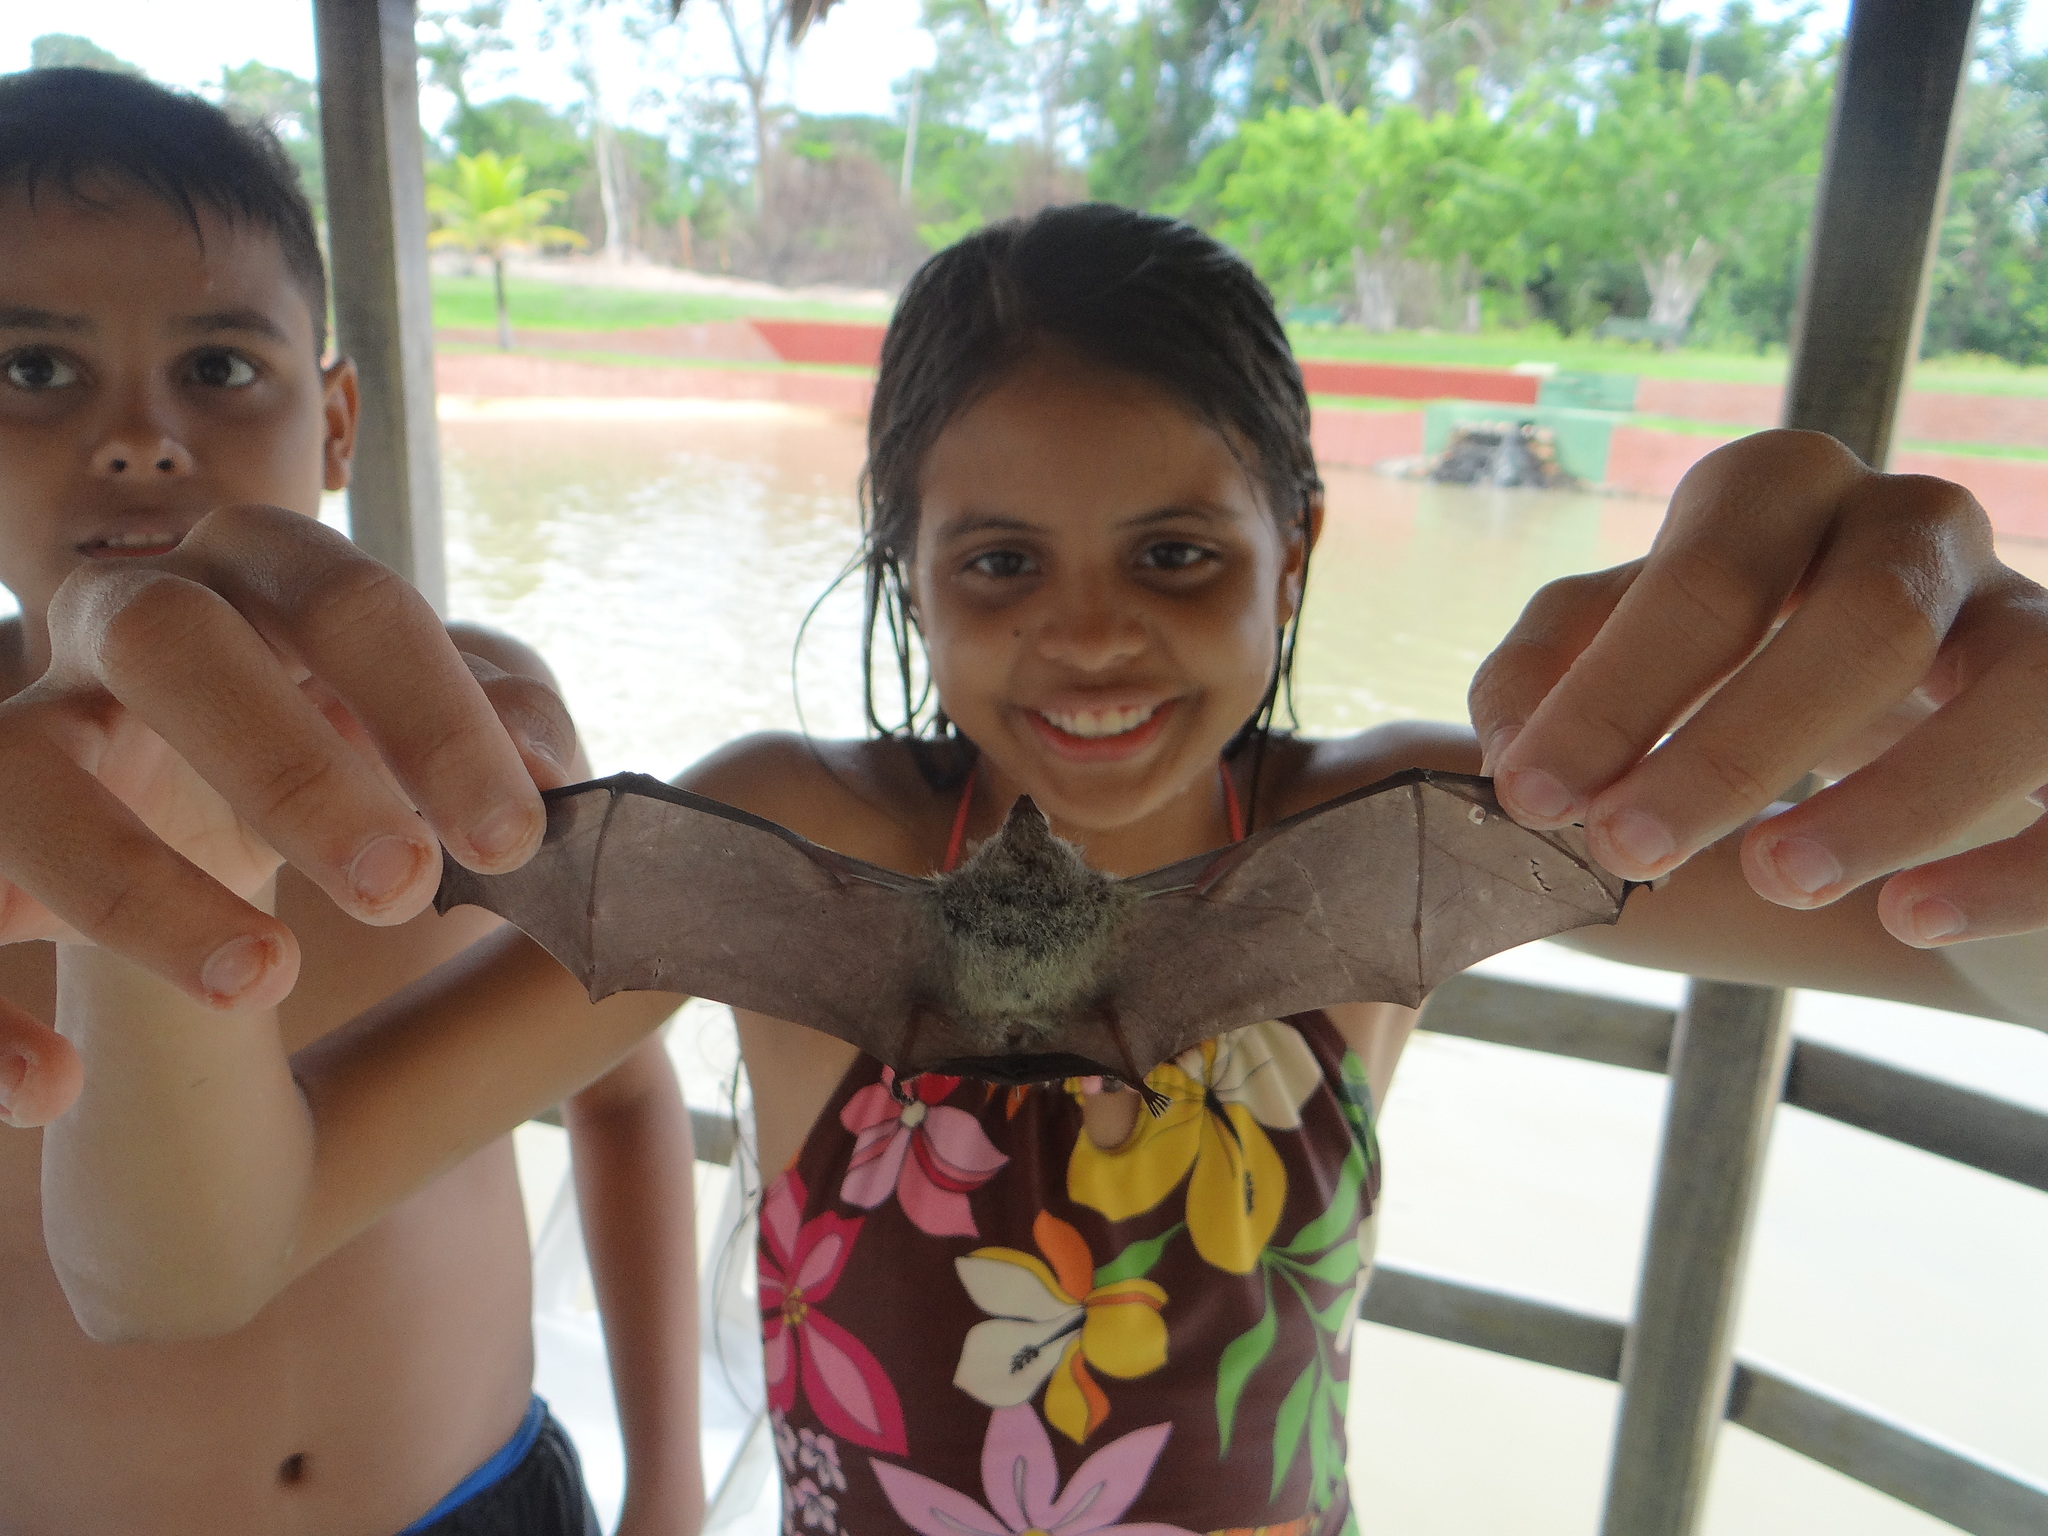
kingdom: Animalia
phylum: Chordata
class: Mammalia
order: Chiroptera
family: Emballonuridae
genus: Rhynchonycteris
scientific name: Rhynchonycteris naso
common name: Proboscis bat
